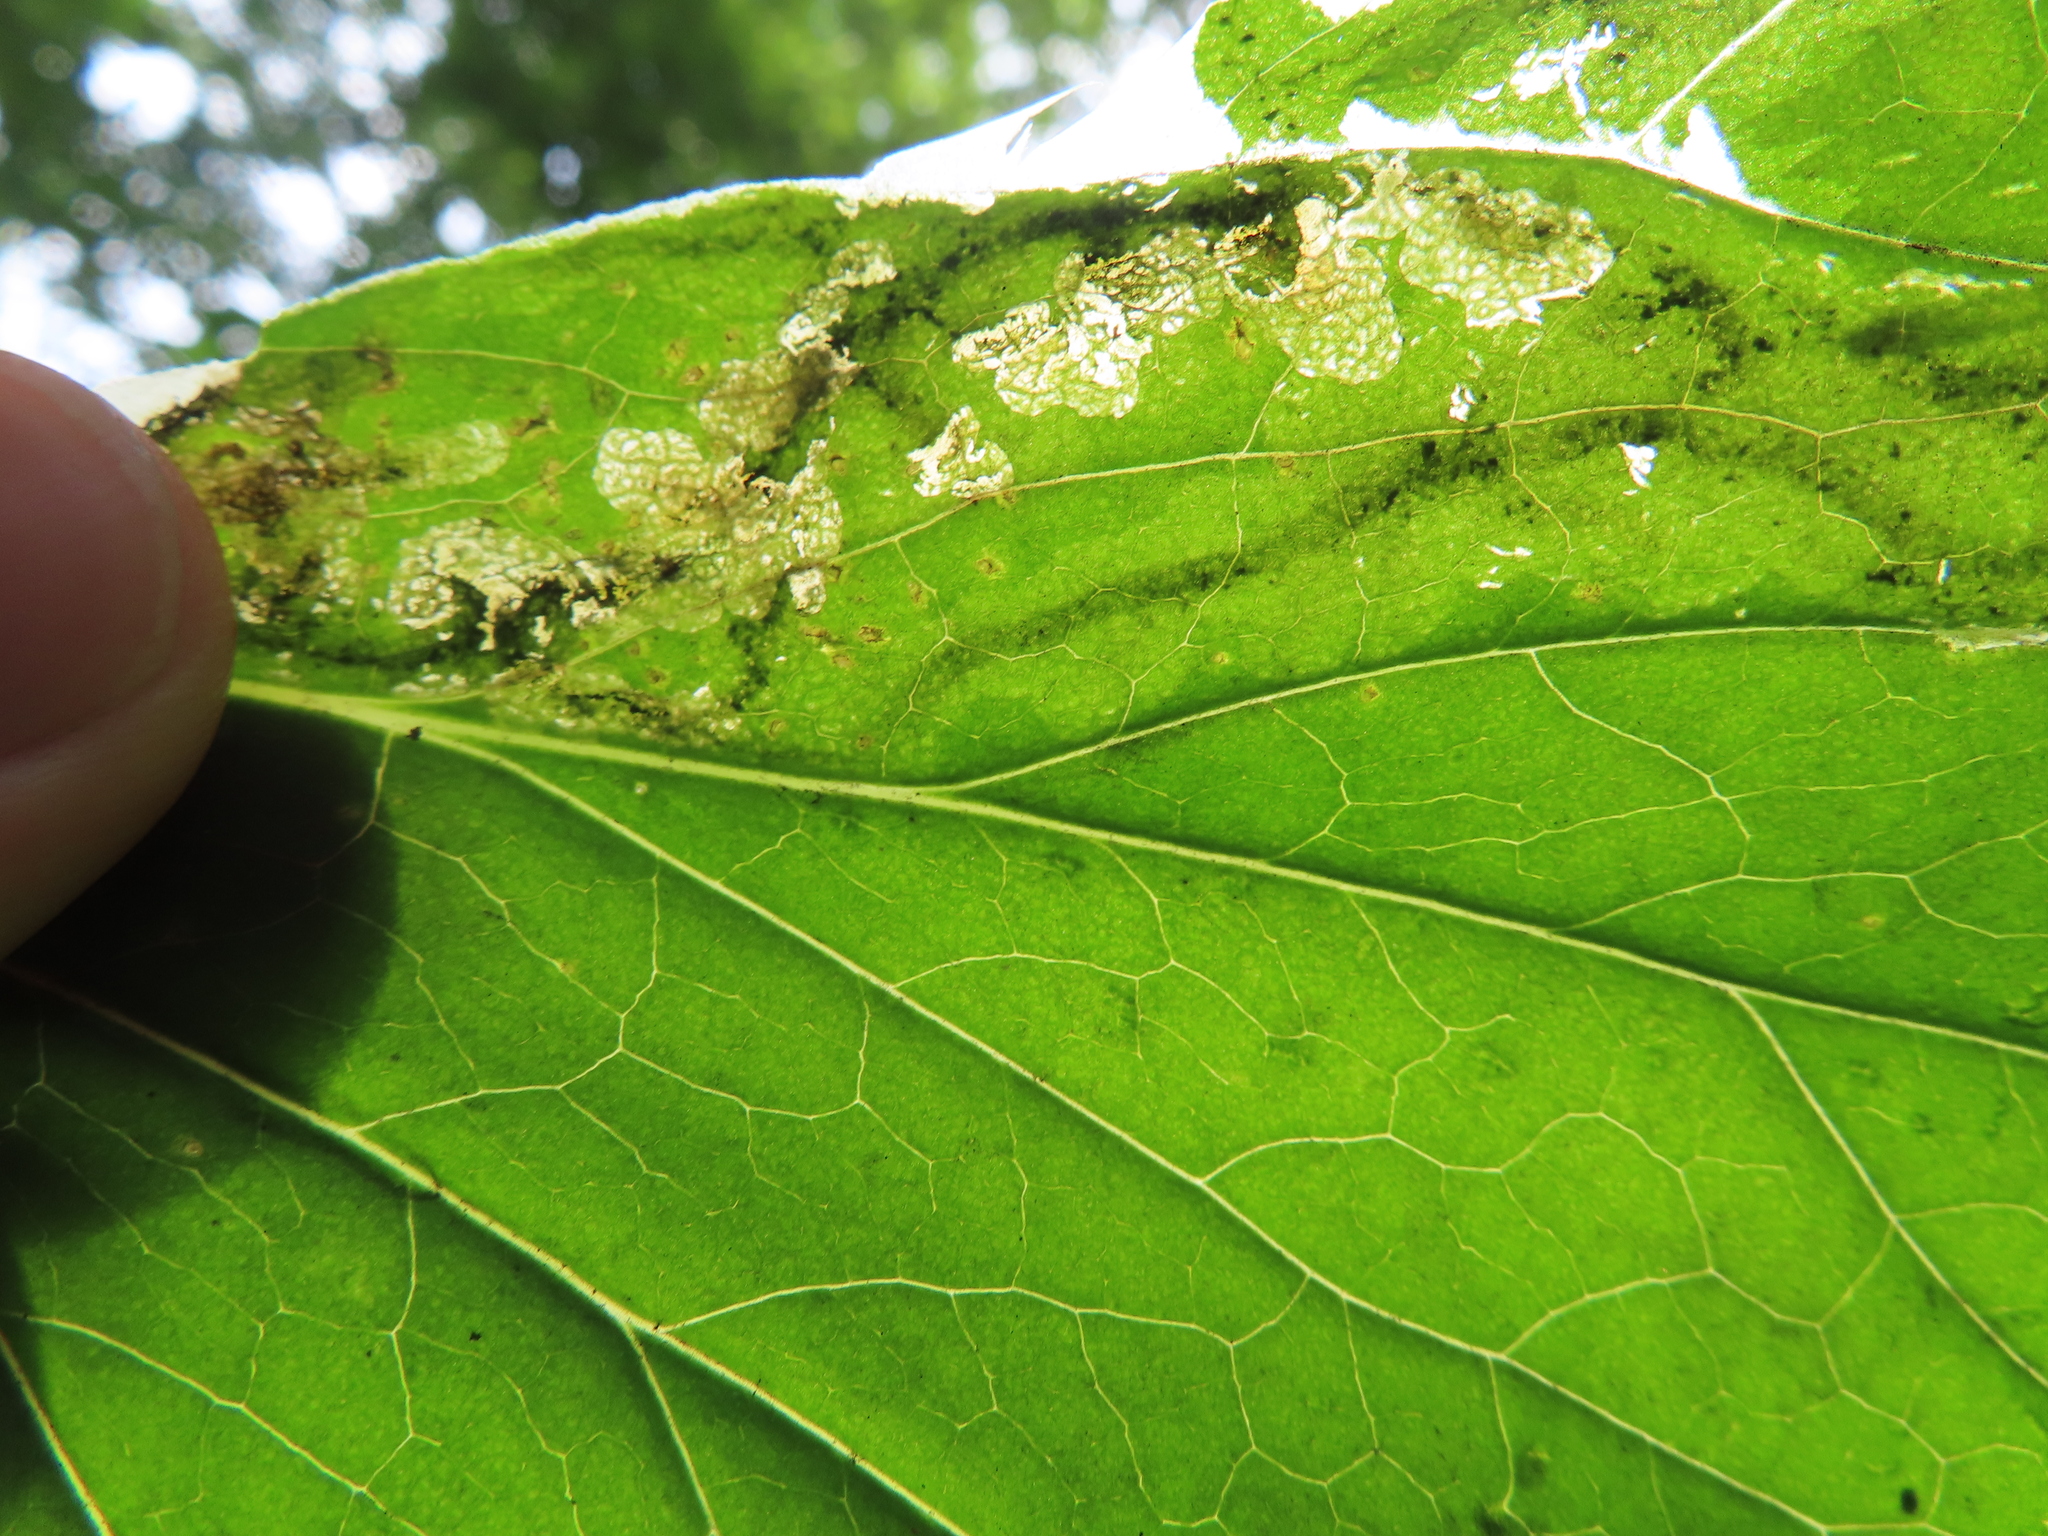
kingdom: Animalia
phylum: Arthropoda
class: Insecta
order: Diptera
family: Tephritidae
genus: Trypeta
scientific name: Trypeta flaveola
